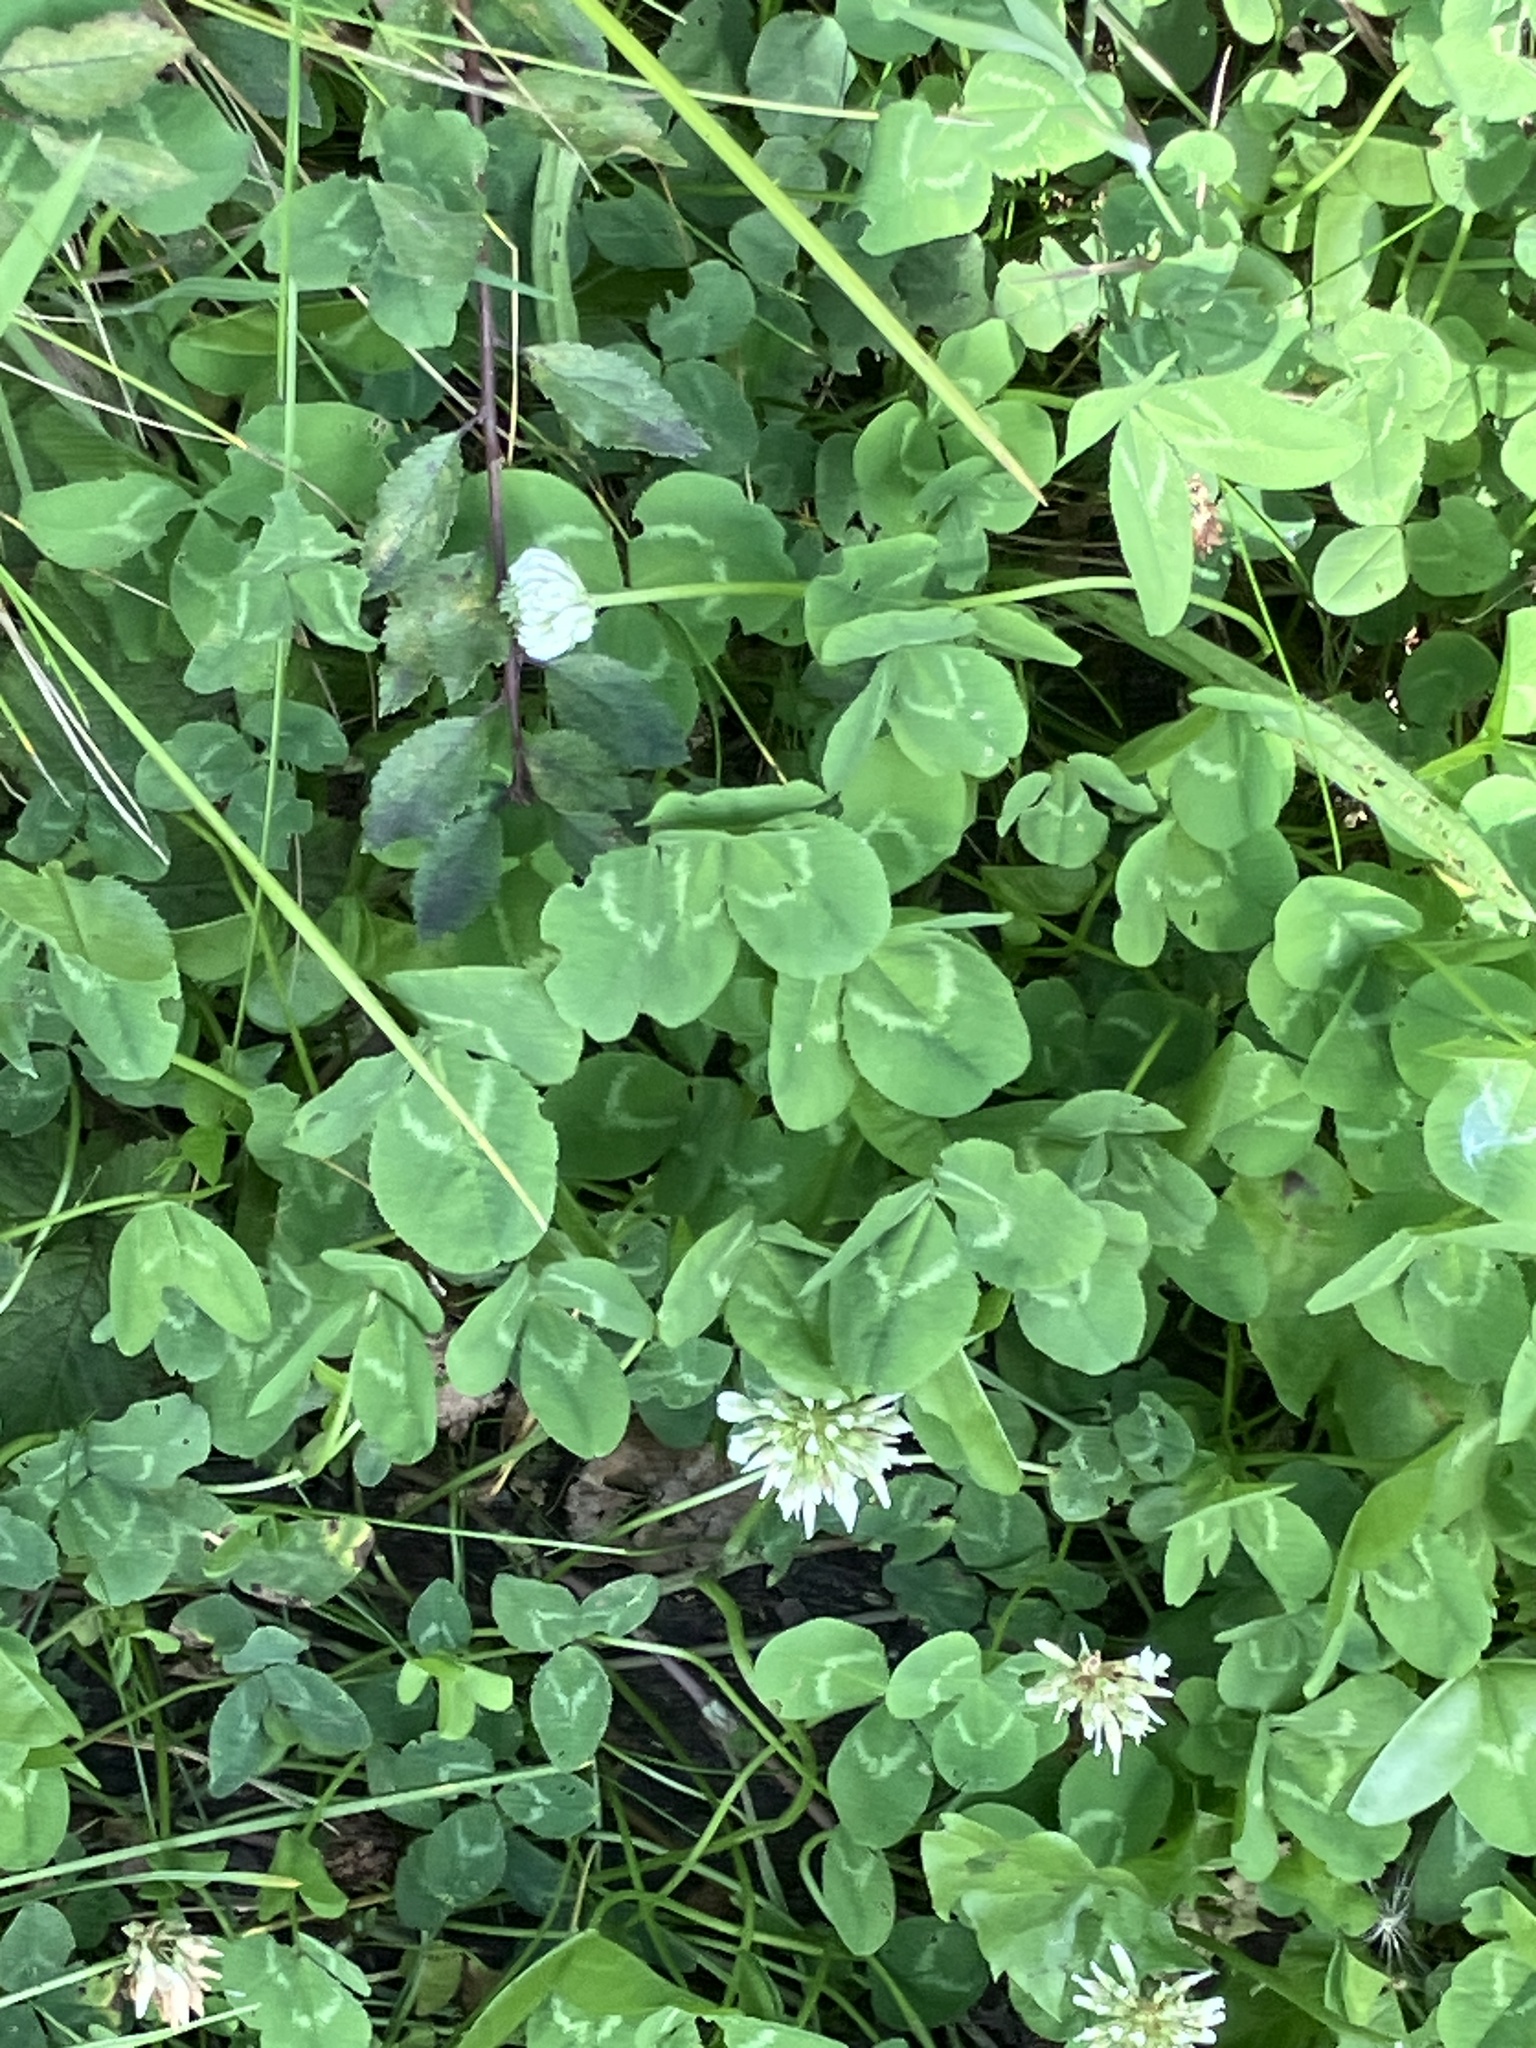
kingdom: Plantae
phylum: Tracheophyta
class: Magnoliopsida
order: Fabales
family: Fabaceae
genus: Trifolium
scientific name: Trifolium repens
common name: White clover
